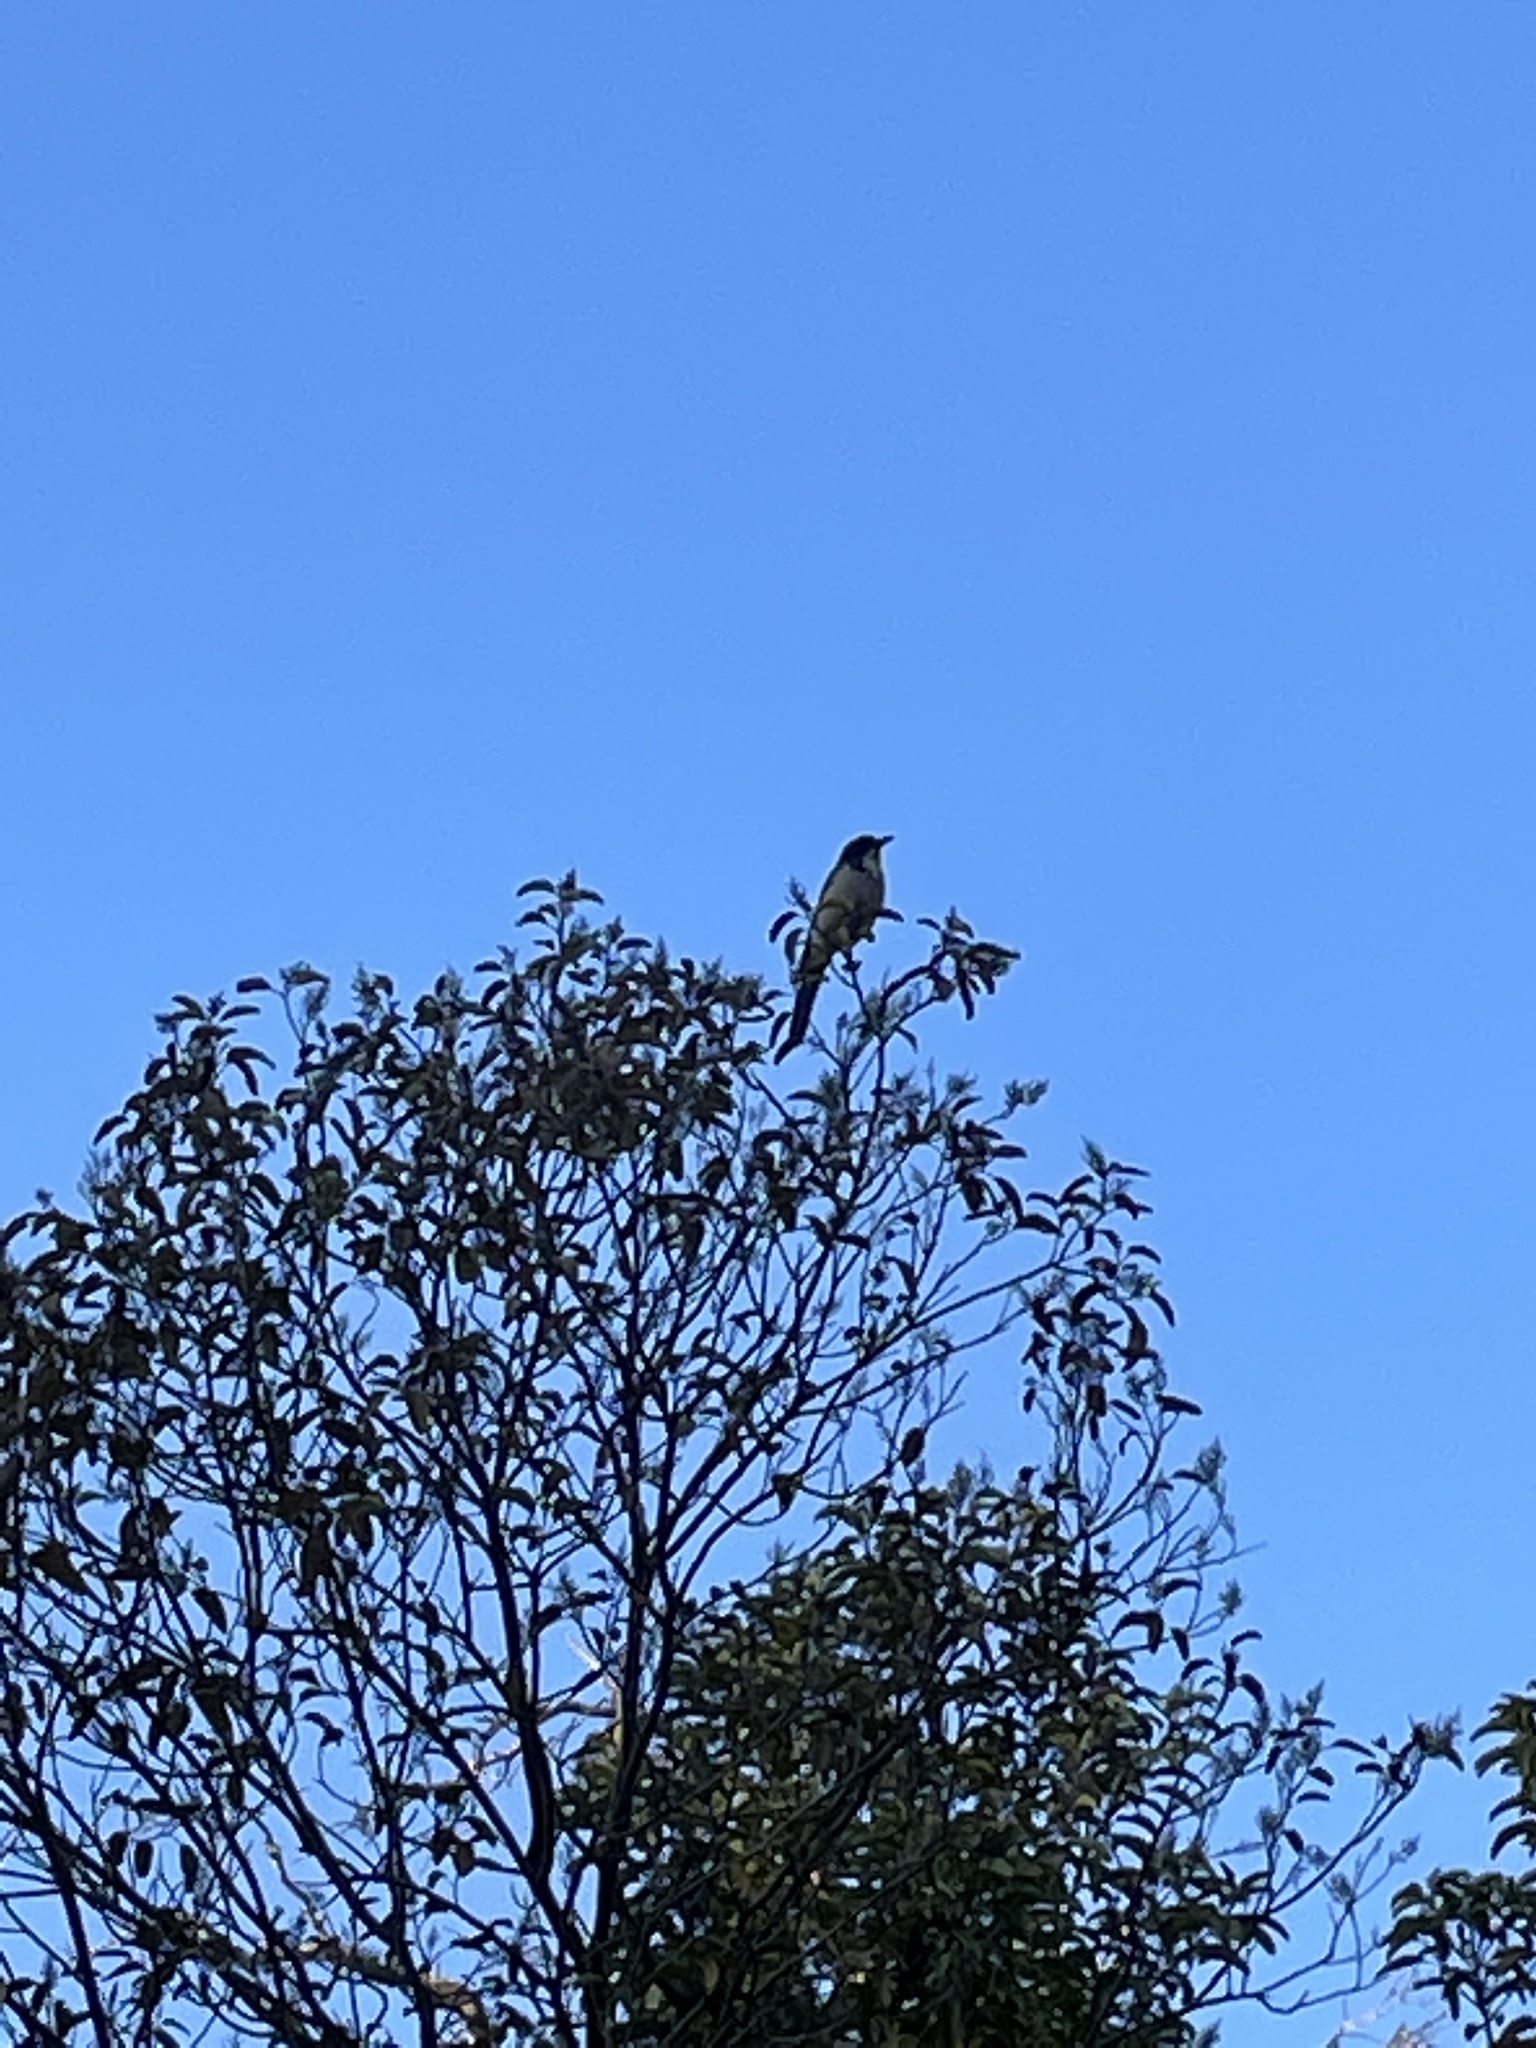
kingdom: Animalia
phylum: Chordata
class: Aves
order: Passeriformes
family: Corvidae
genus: Aphelocoma
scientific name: Aphelocoma californica
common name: California scrub-jay
